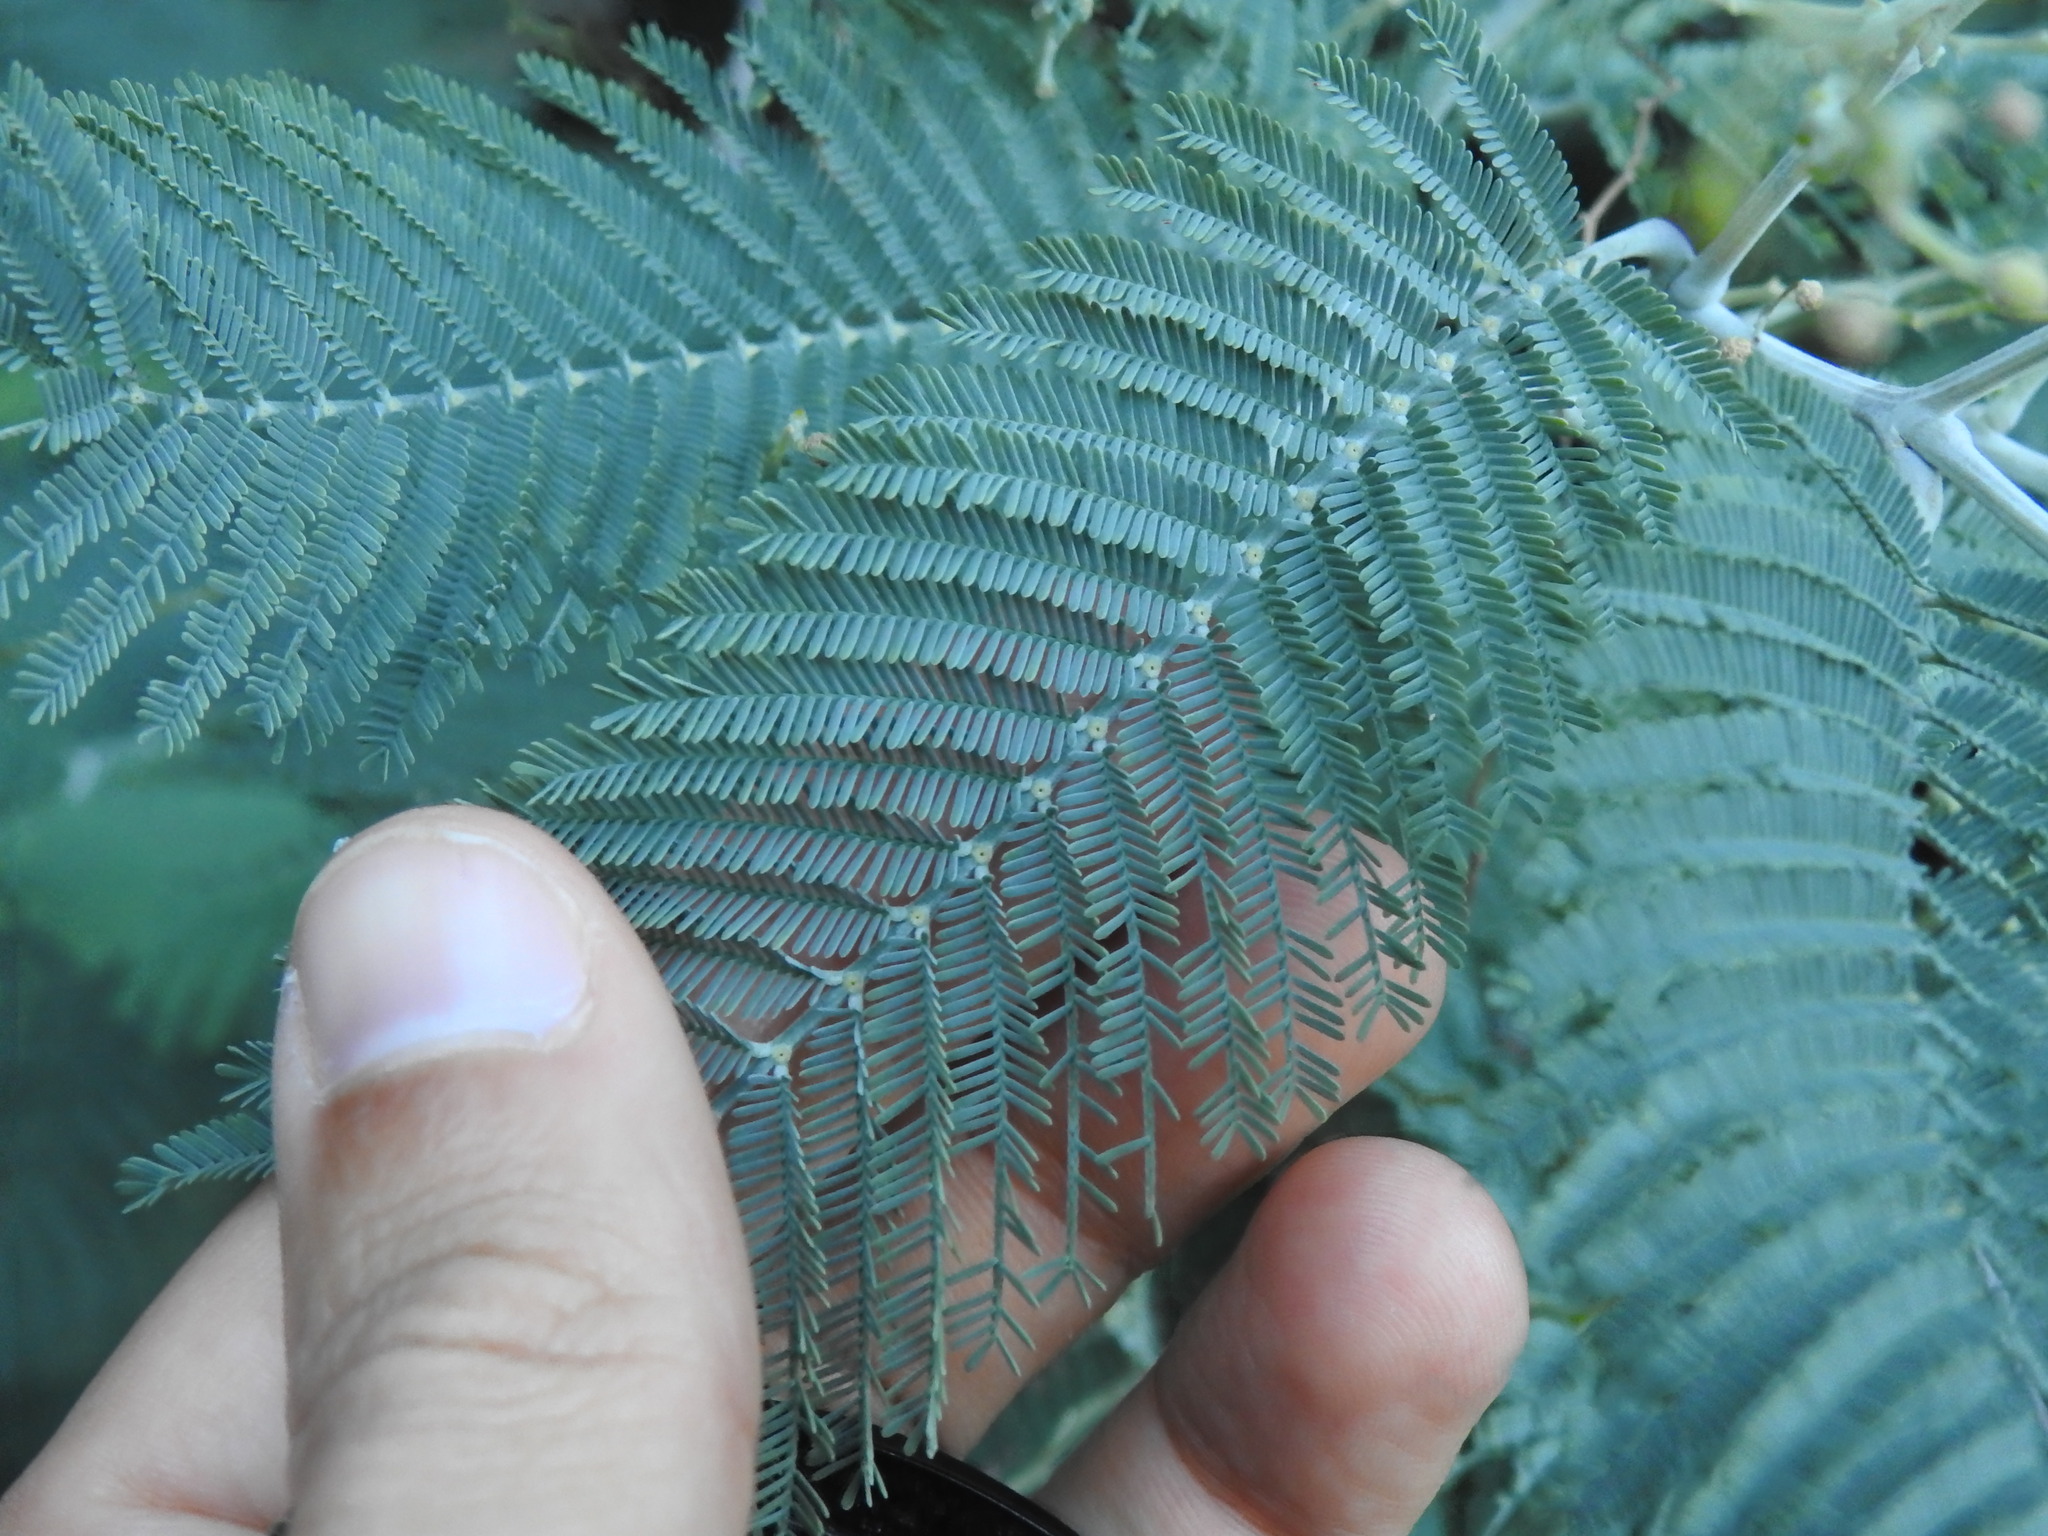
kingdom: Plantae
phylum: Tracheophyta
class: Magnoliopsida
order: Fabales
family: Fabaceae
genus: Acacia
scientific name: Acacia dealbata
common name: Silver wattle
